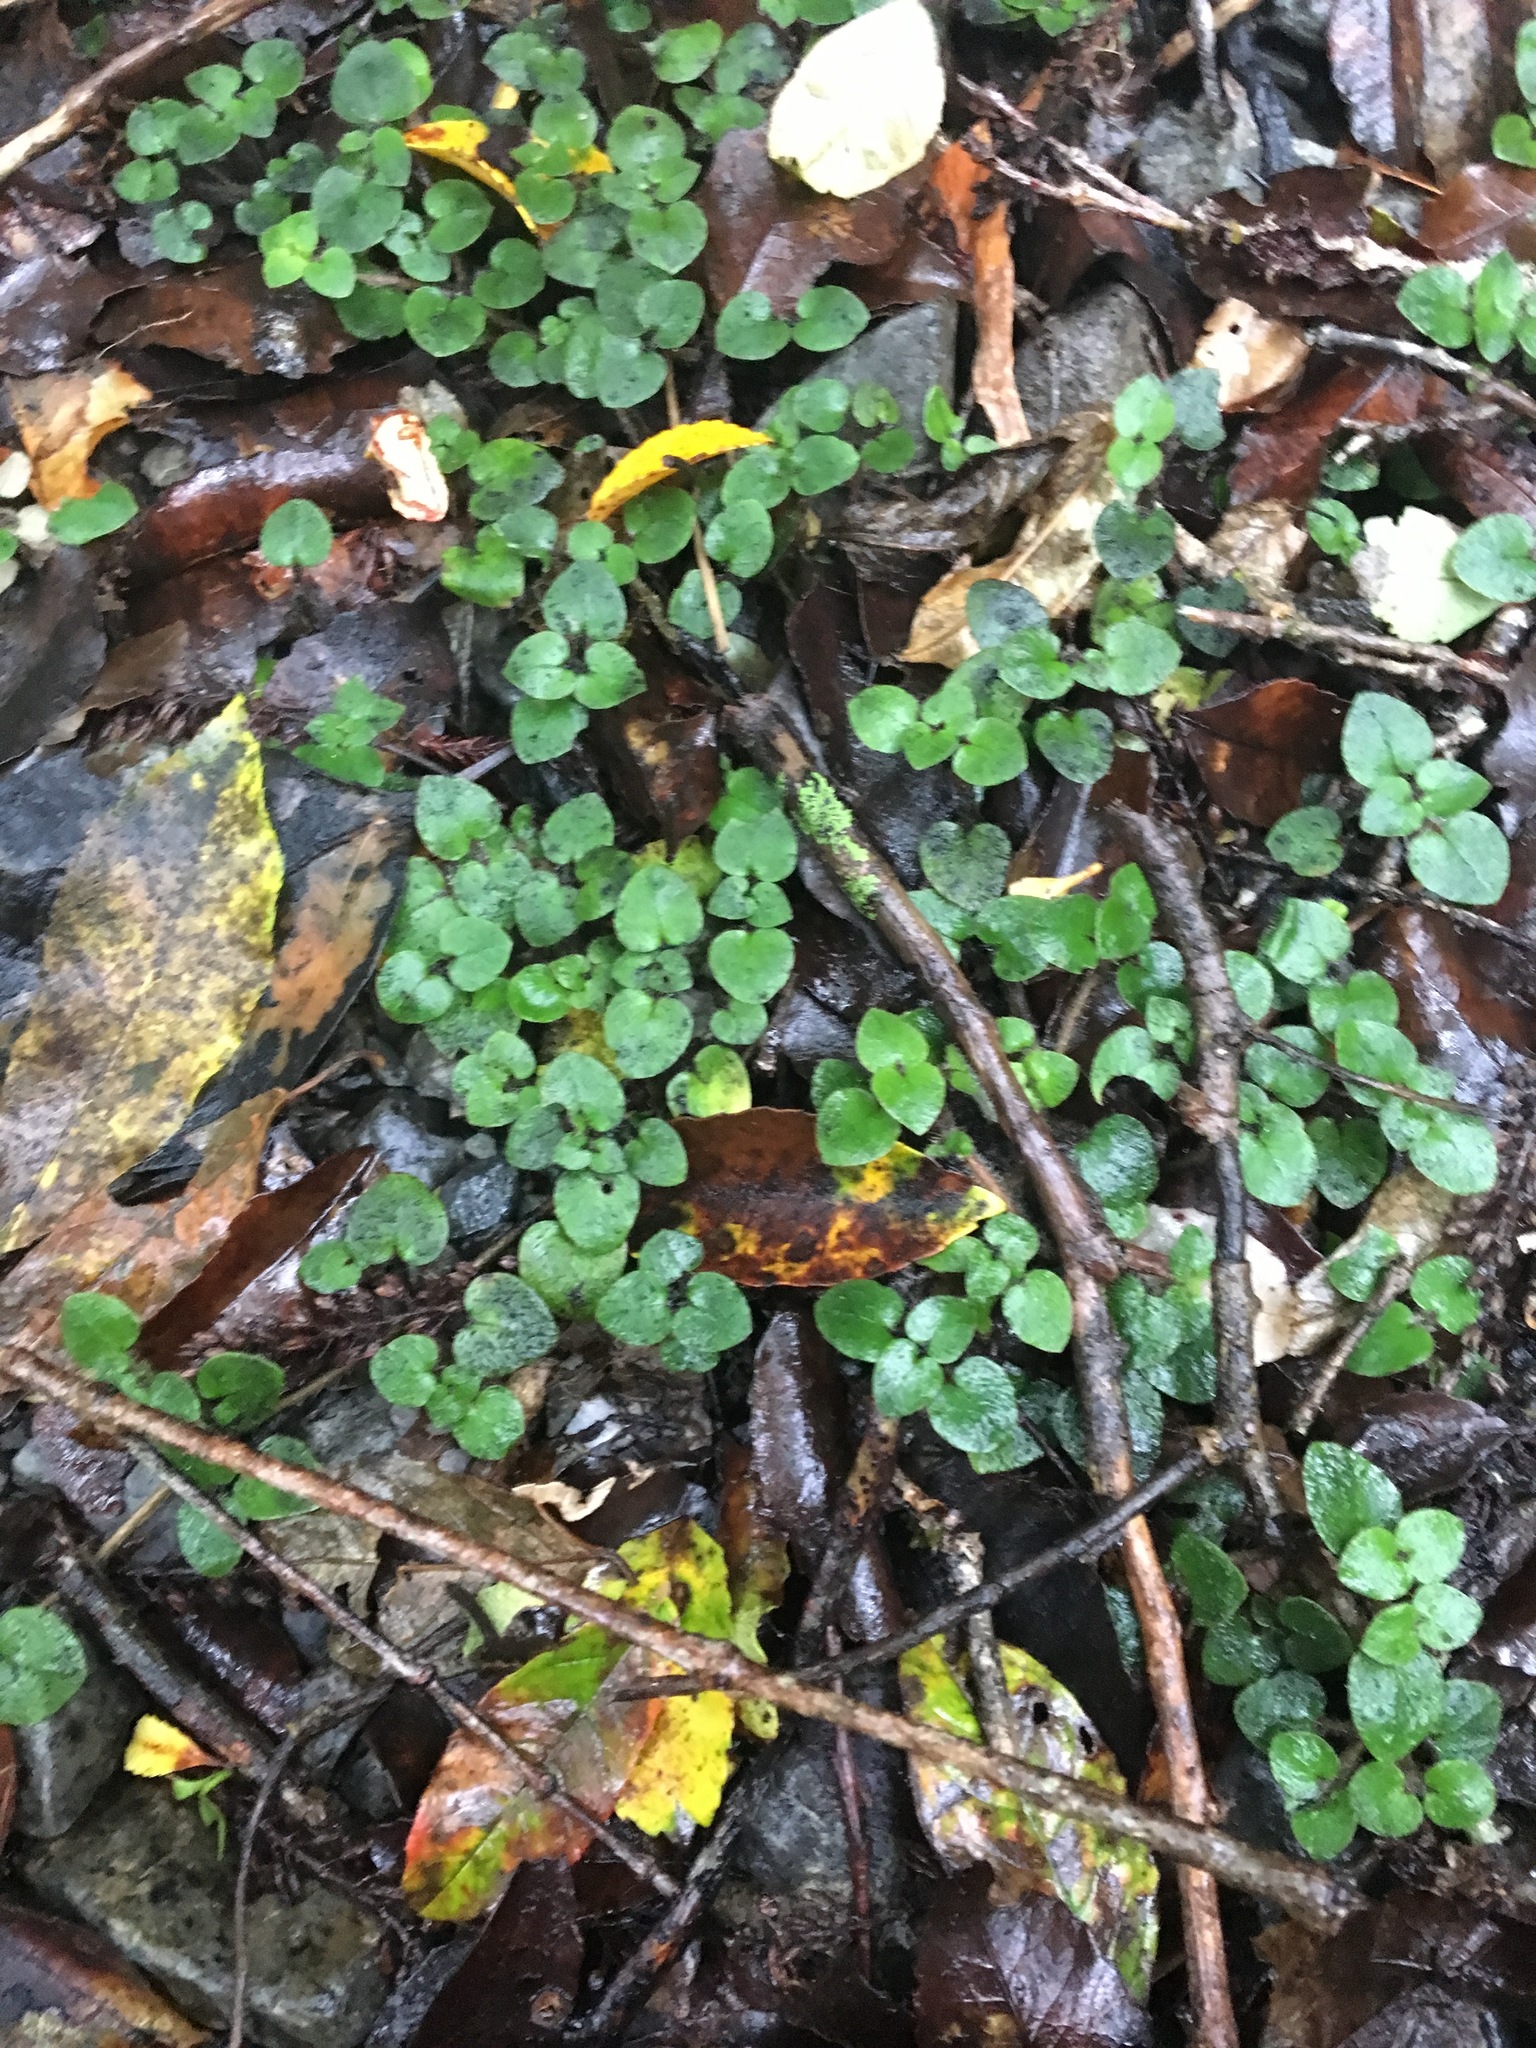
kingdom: Plantae
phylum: Tracheophyta
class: Magnoliopsida
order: Gentianales
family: Rubiaceae
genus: Nertera
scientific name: Nertera villosa
